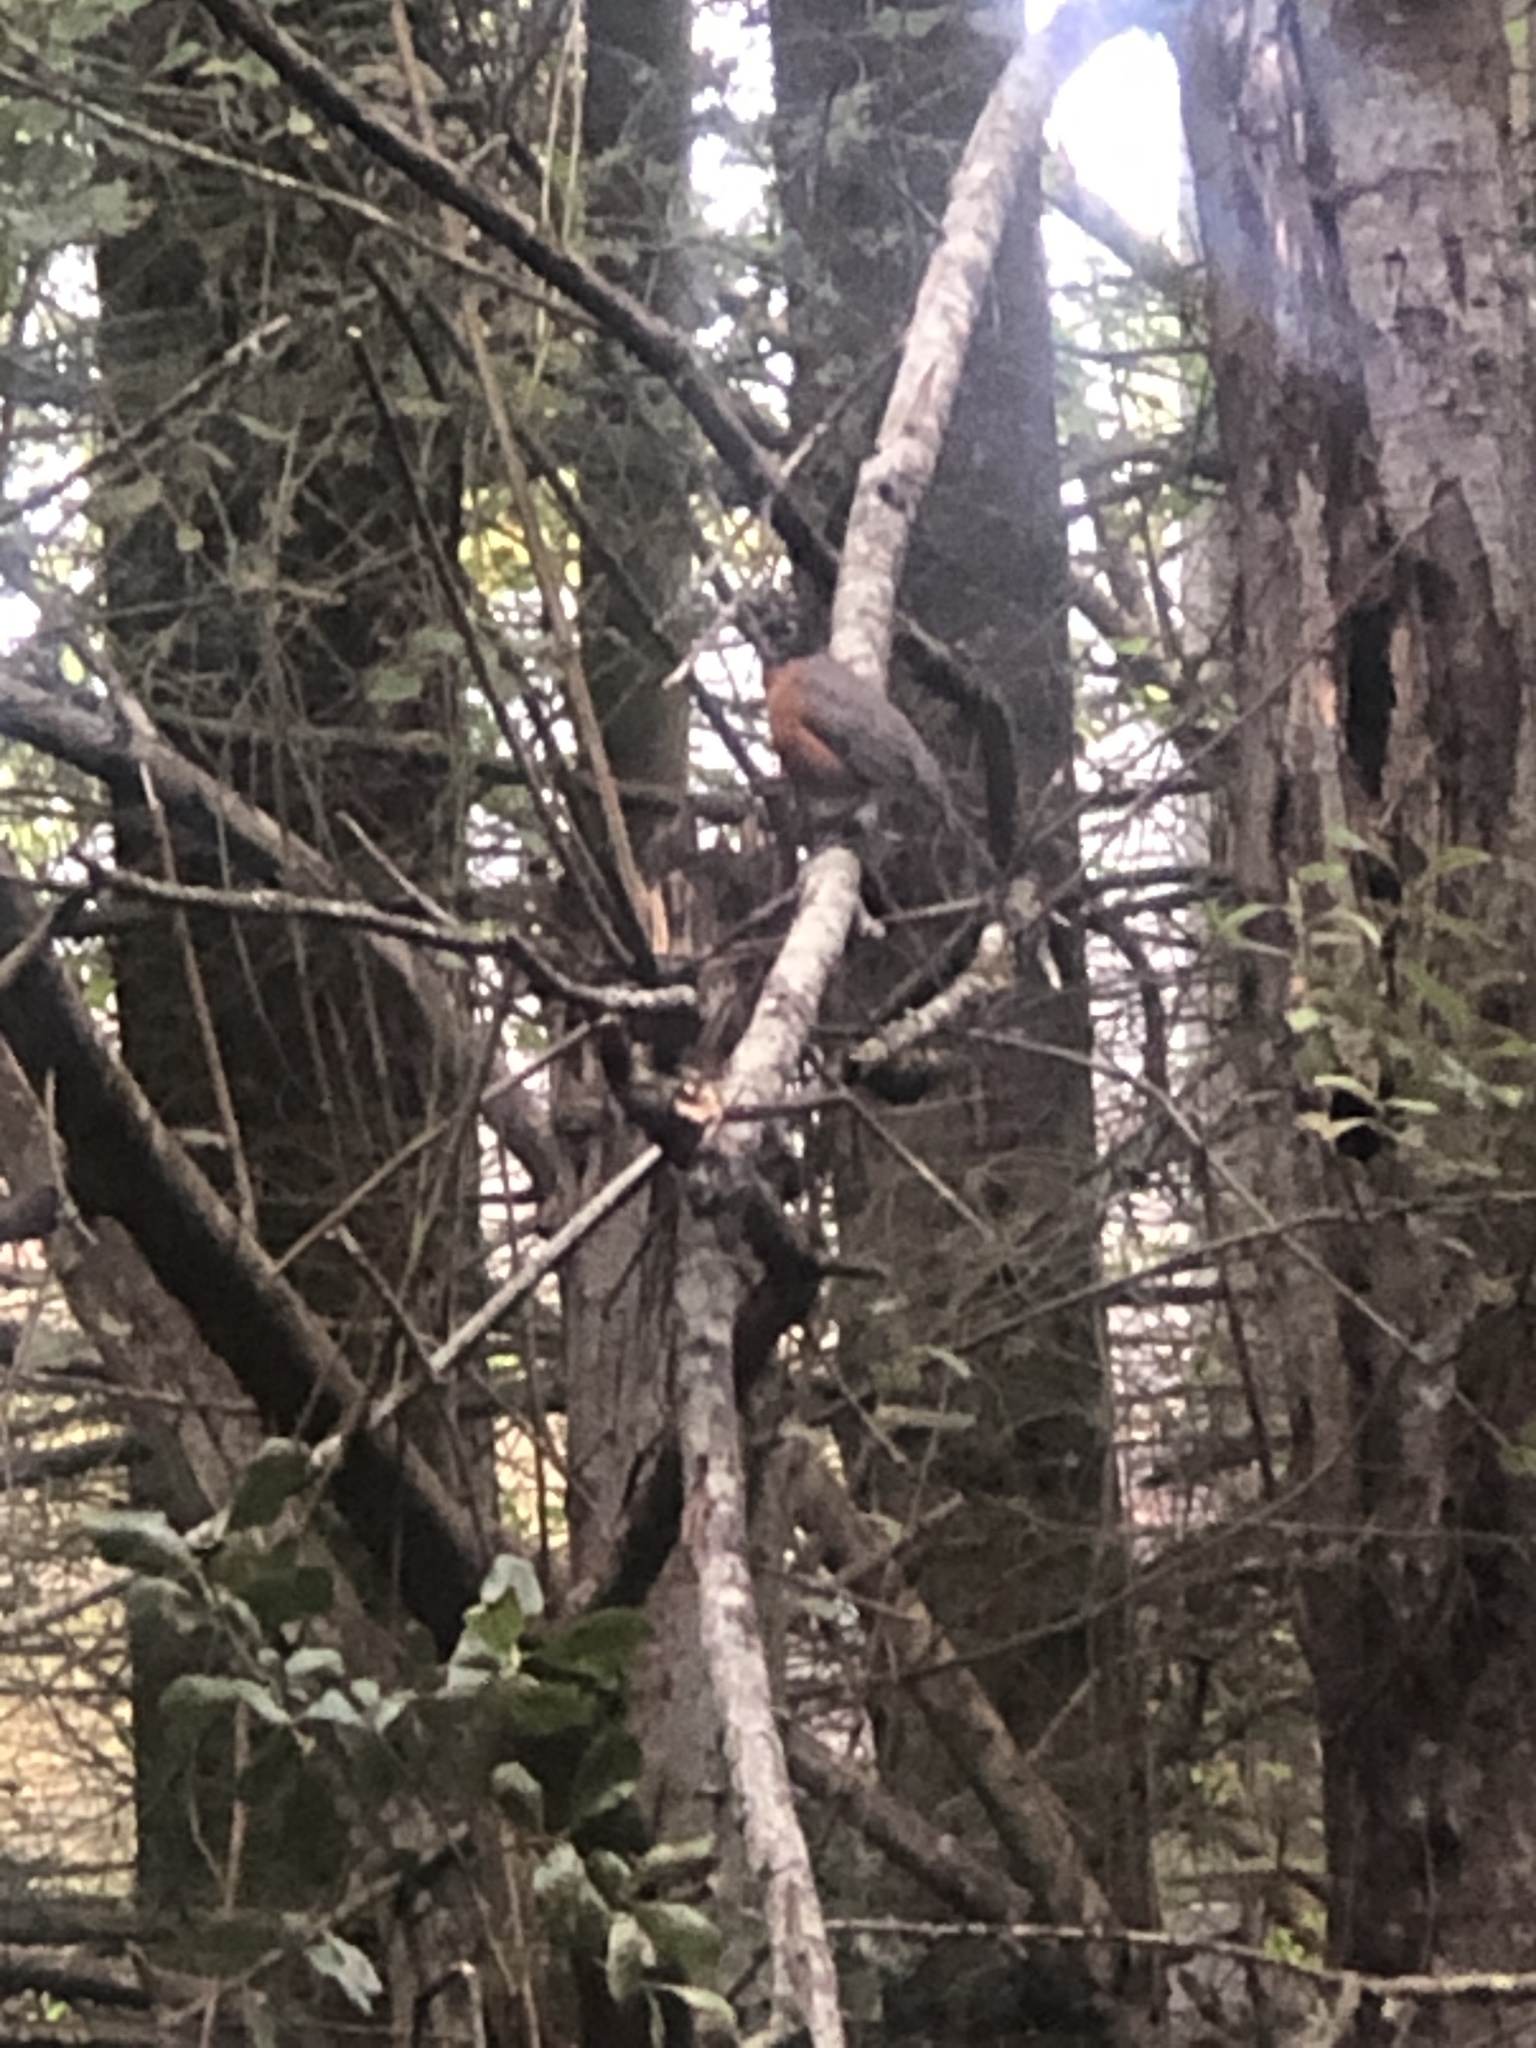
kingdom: Animalia
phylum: Chordata
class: Aves
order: Passeriformes
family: Turdidae
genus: Turdus
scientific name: Turdus migratorius
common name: American robin
